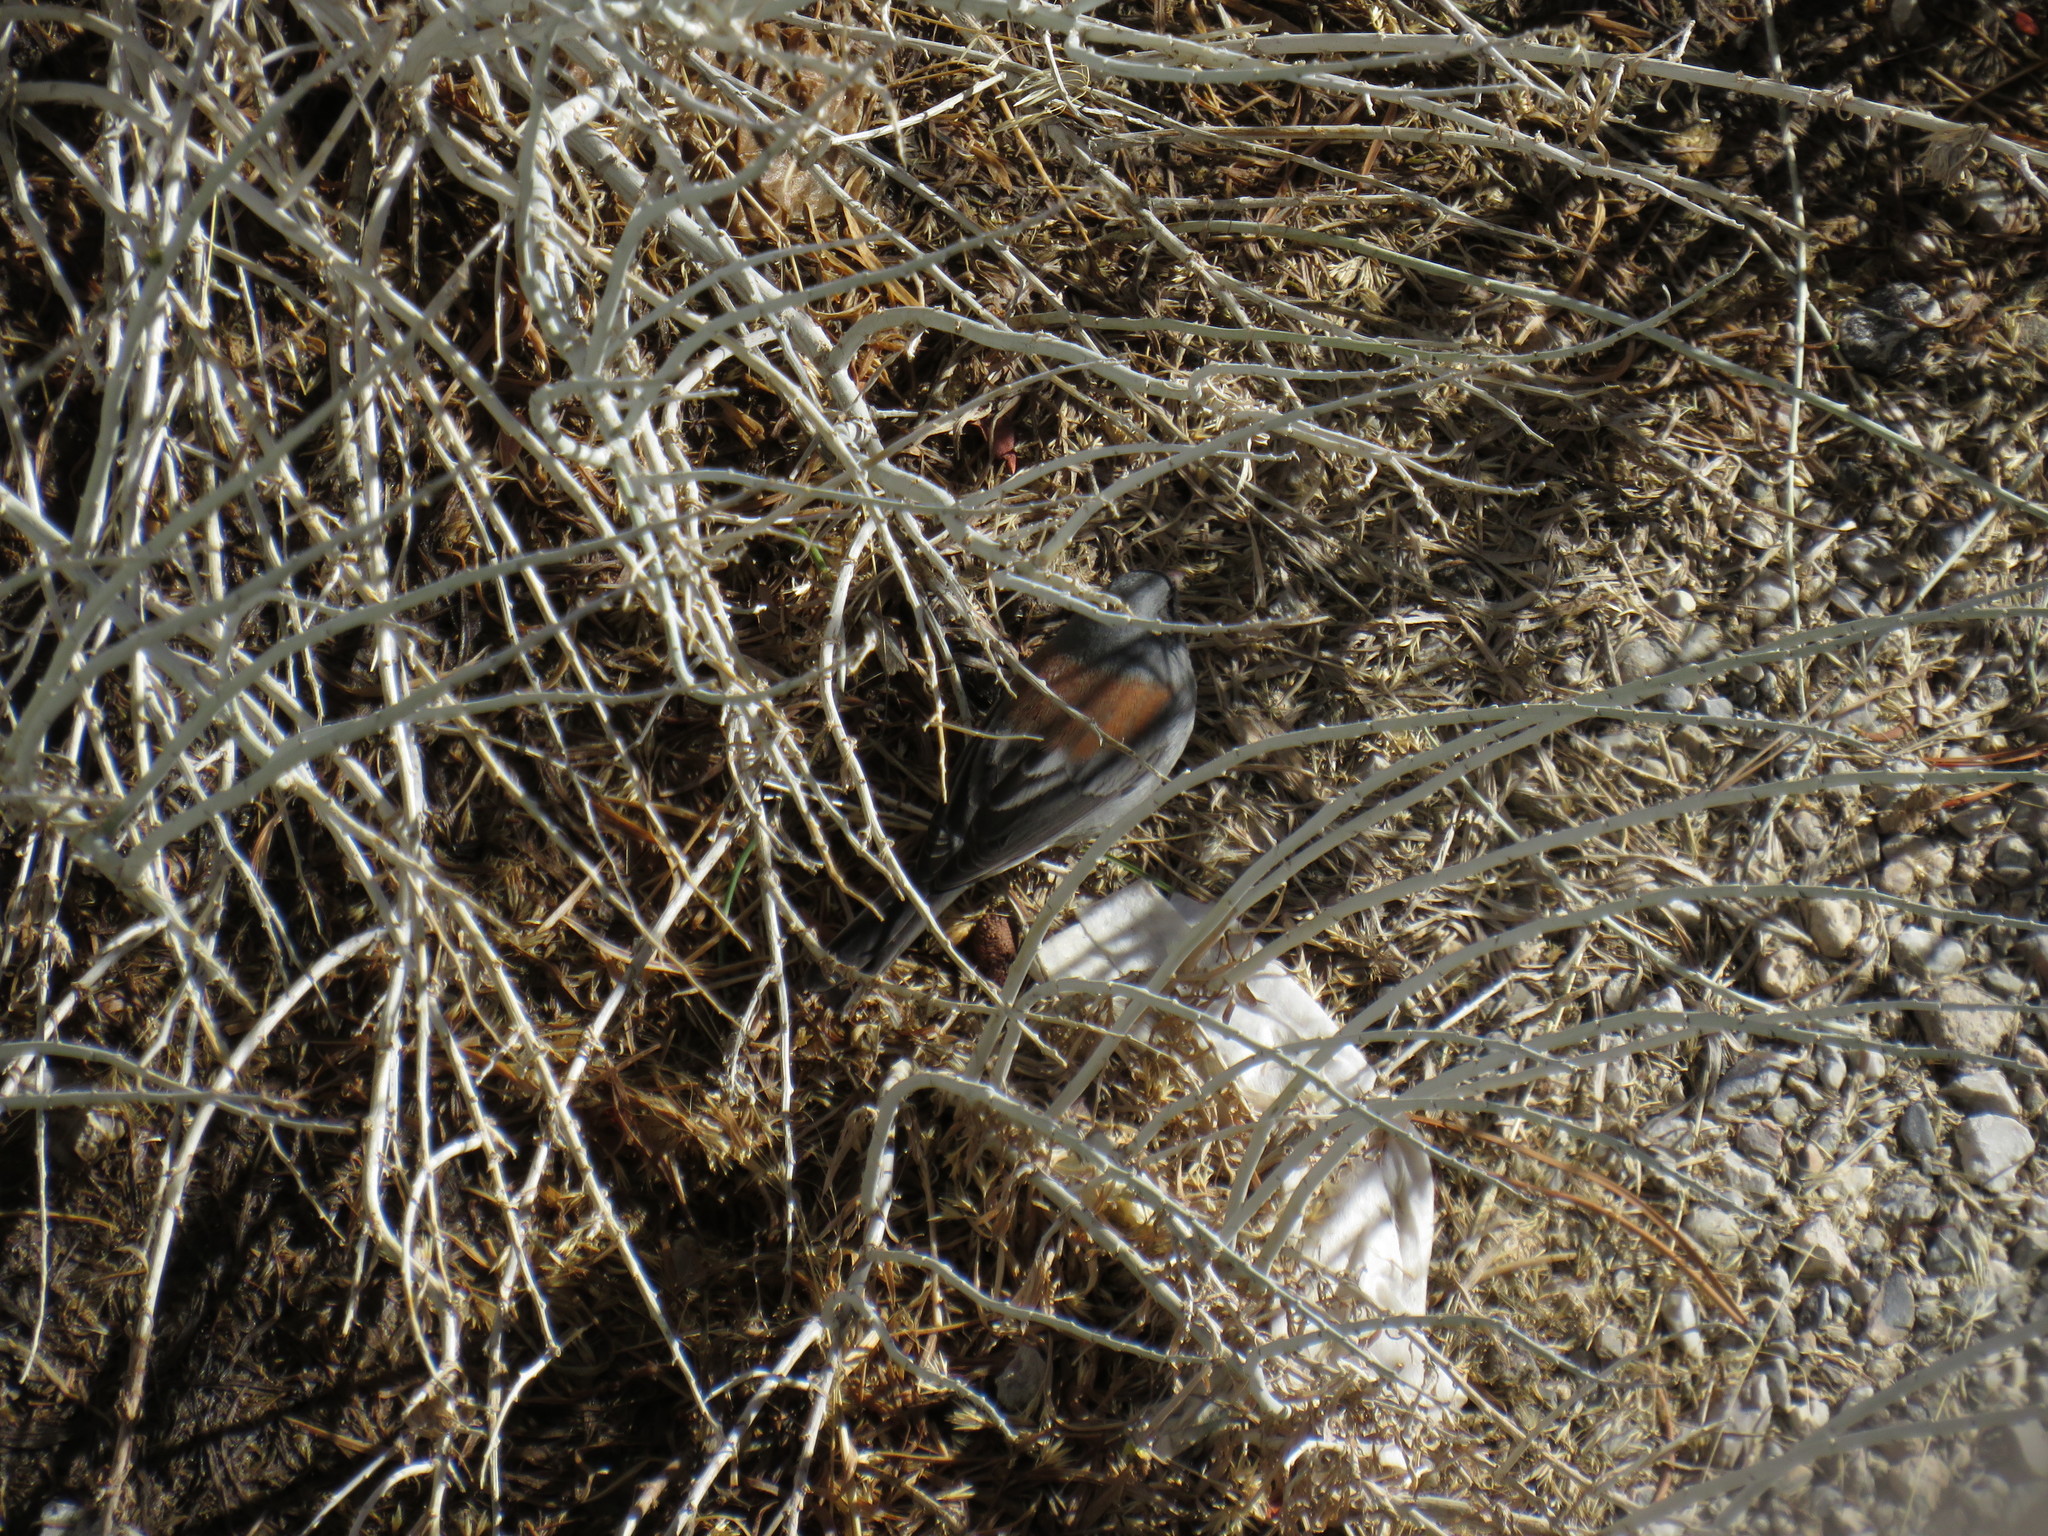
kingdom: Animalia
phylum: Chordata
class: Aves
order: Passeriformes
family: Passerellidae
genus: Junco
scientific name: Junco hyemalis
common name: Dark-eyed junco
